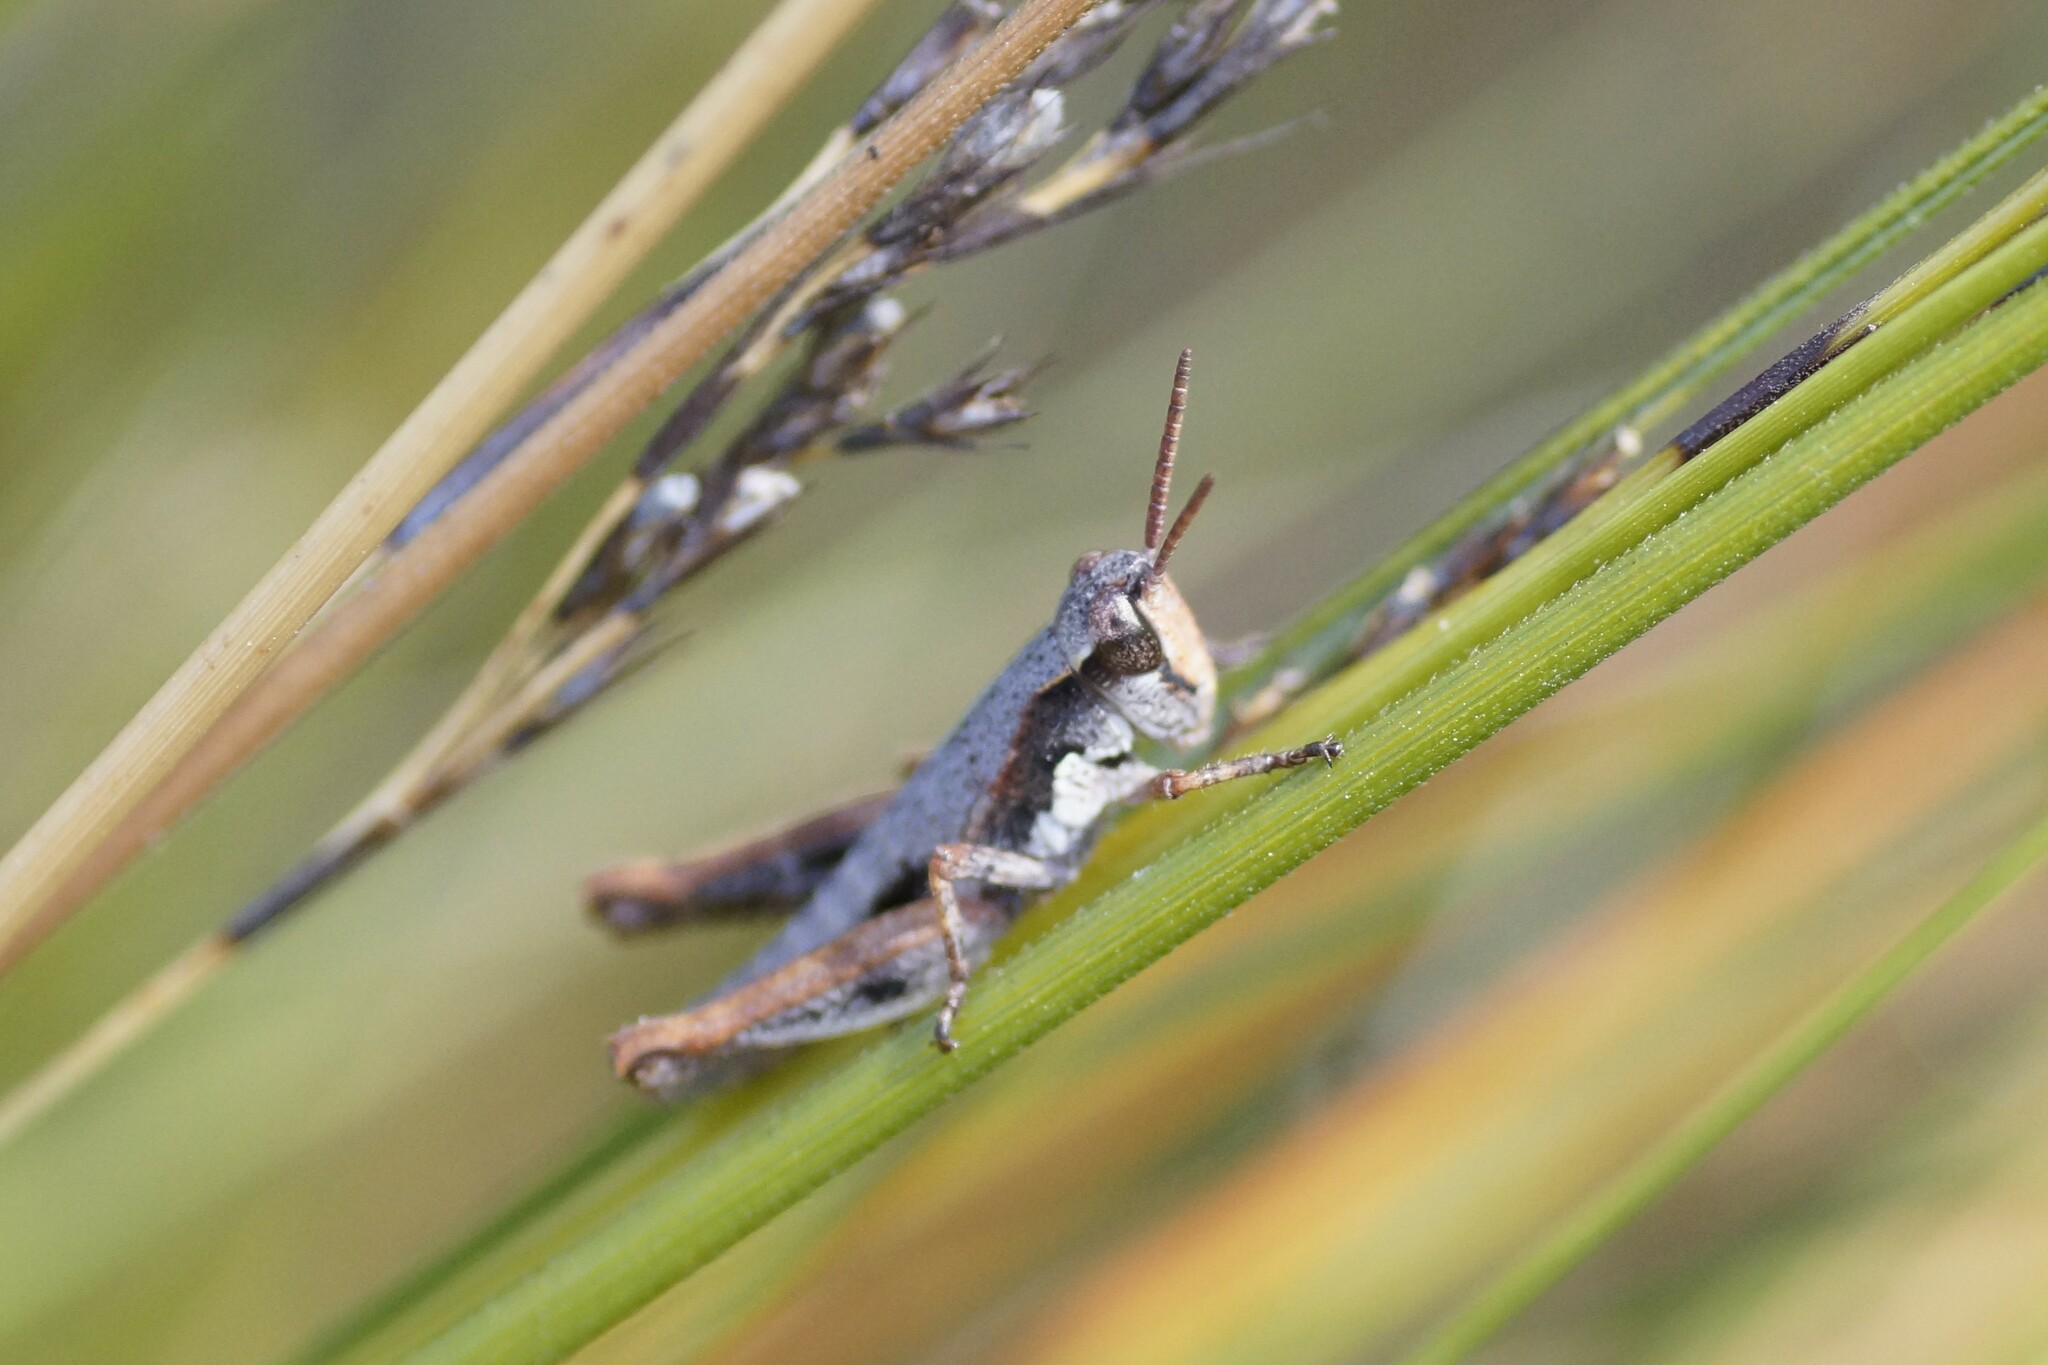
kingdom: Animalia
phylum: Arthropoda
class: Insecta
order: Orthoptera
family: Acrididae
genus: Tasmaniacris
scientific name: Tasmaniacris tasmaniensis
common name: Tasmanian grasshopper
